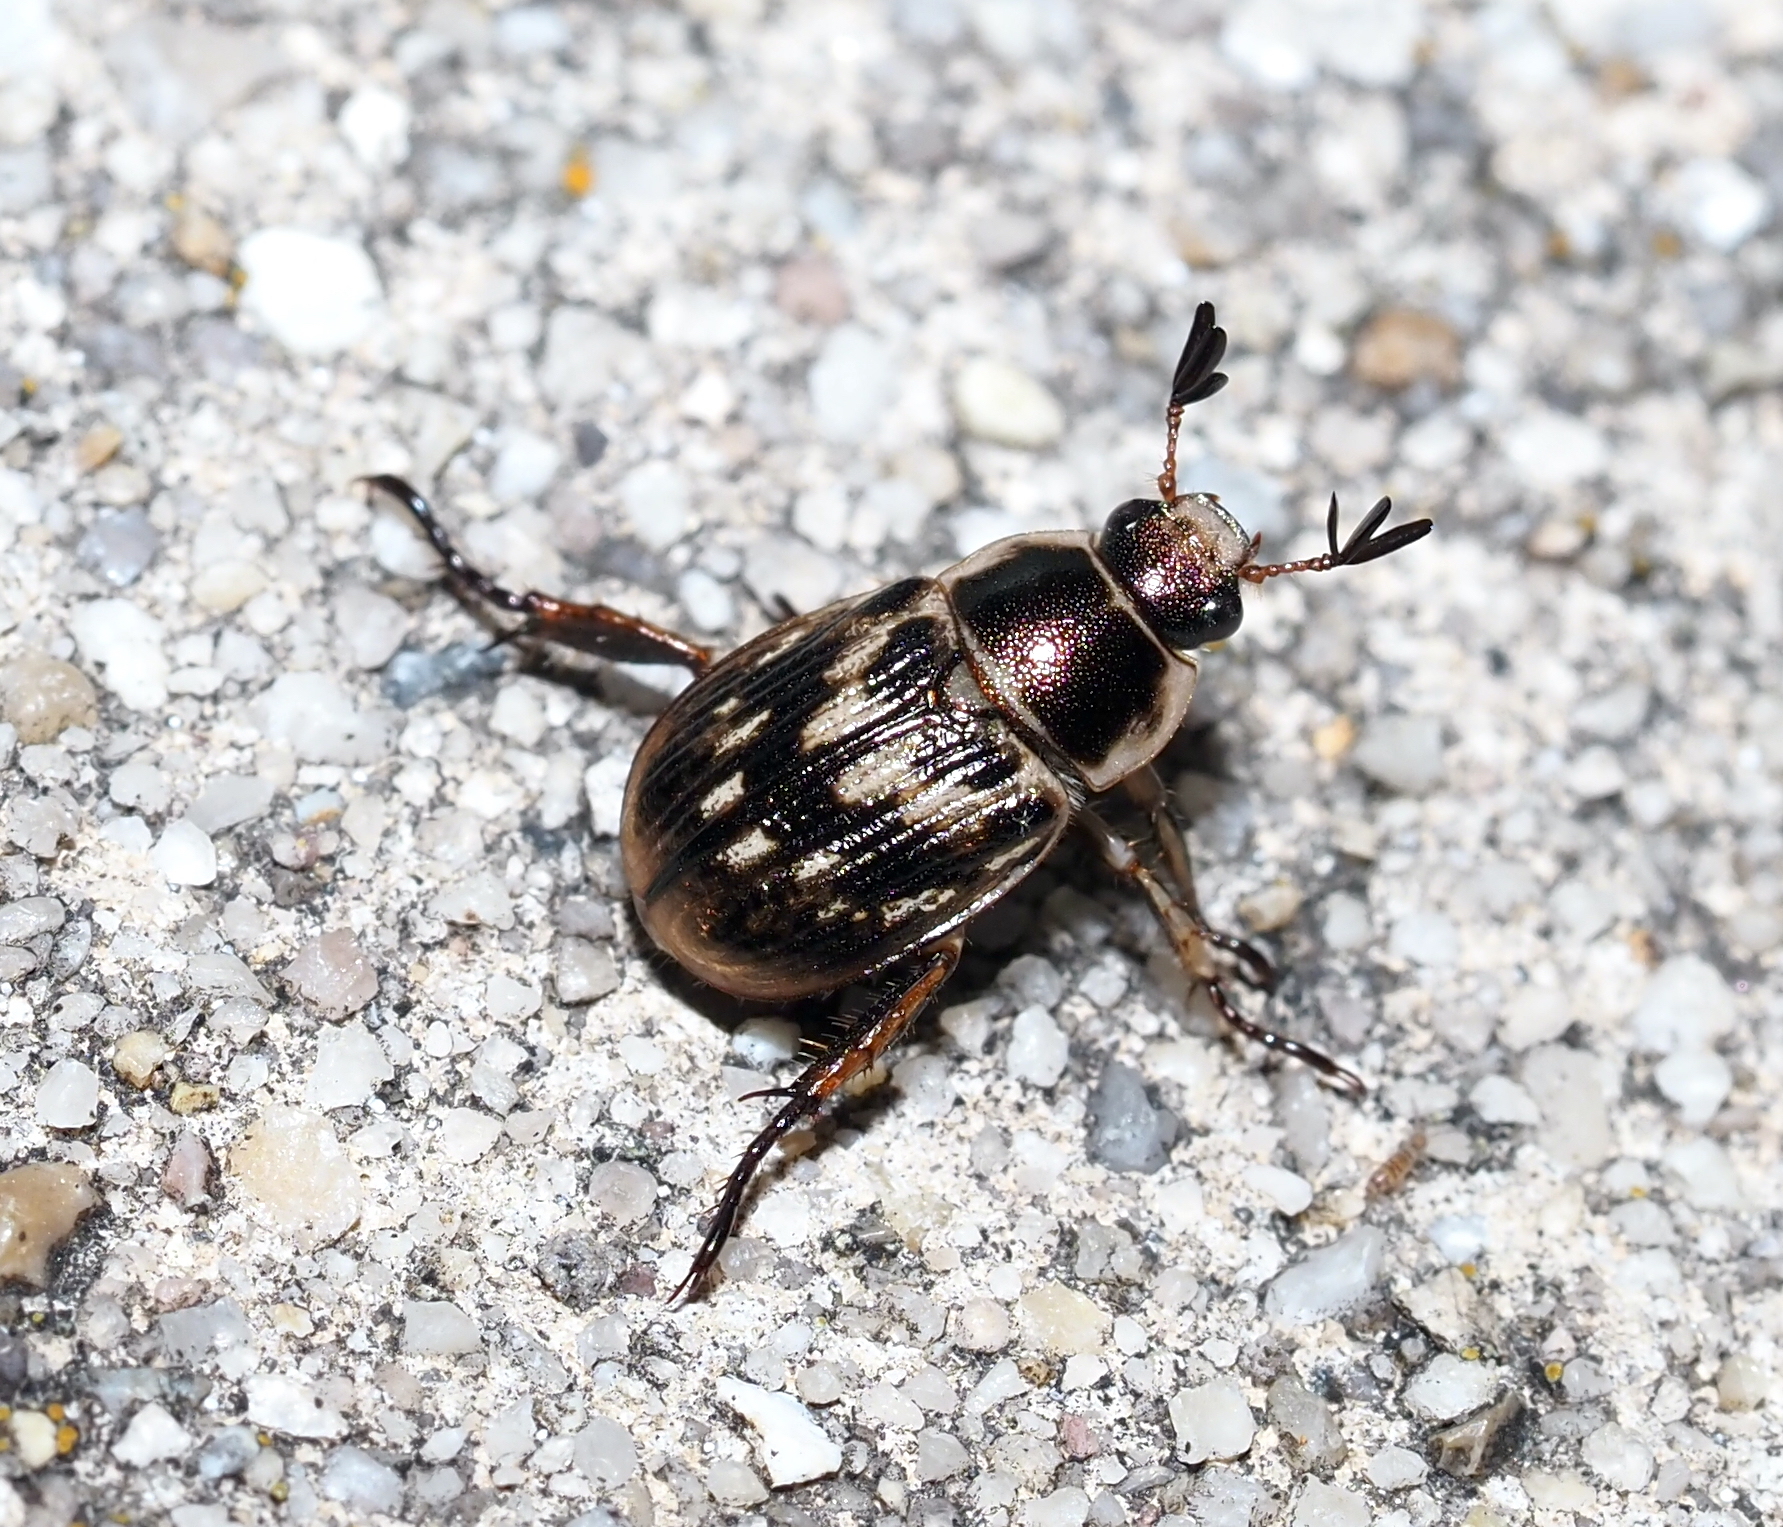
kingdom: Animalia
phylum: Arthropoda
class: Insecta
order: Coleoptera
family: Scarabaeidae
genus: Exomala
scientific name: Exomala orientalis
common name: Oriental beetle
